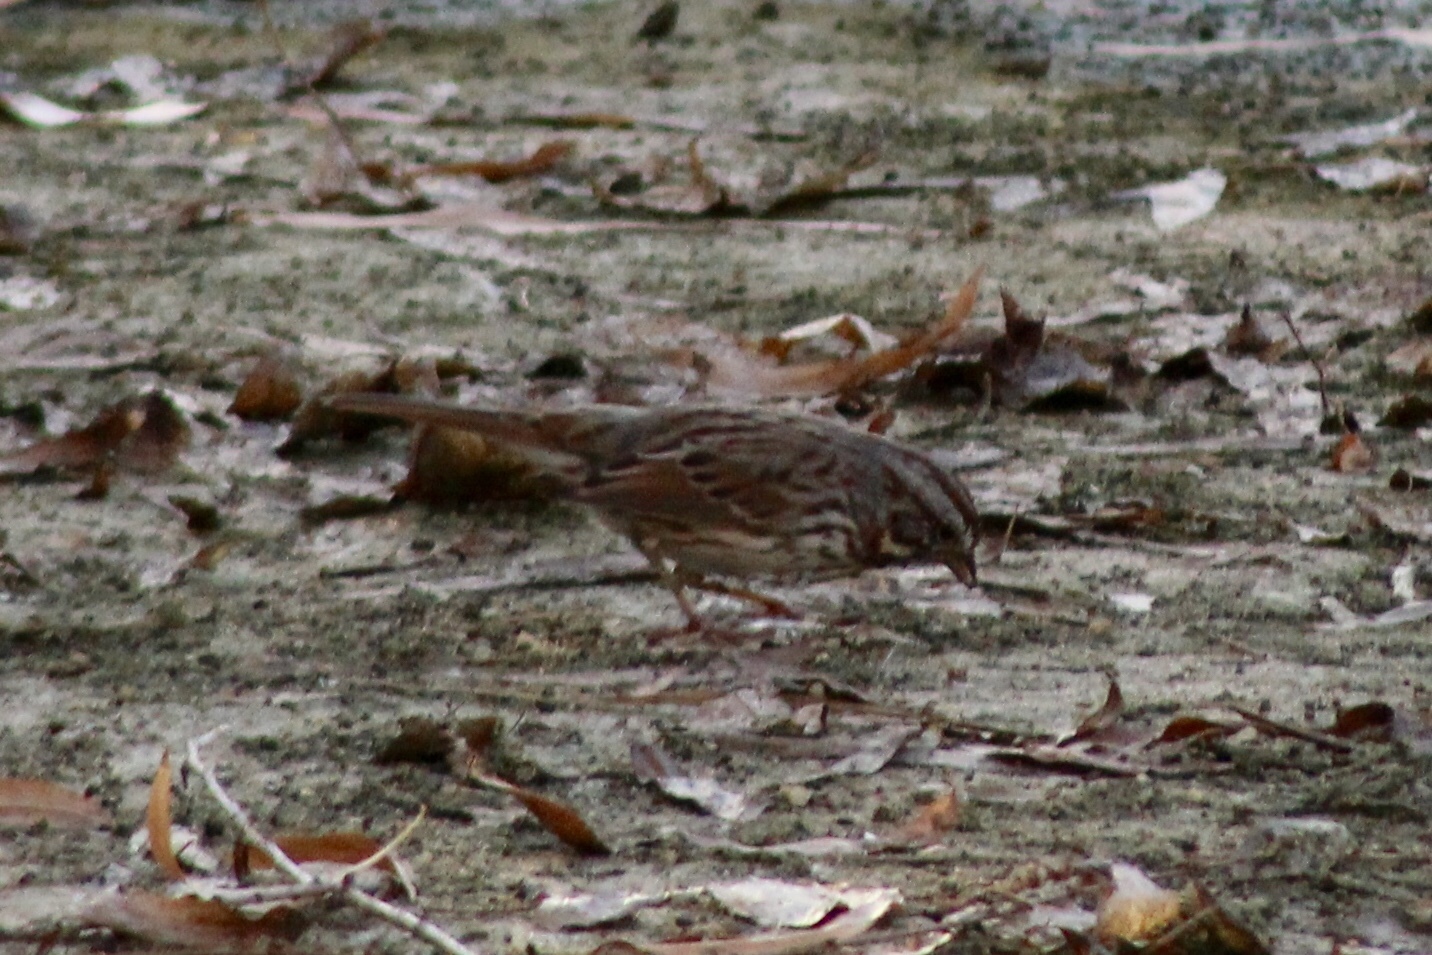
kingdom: Animalia
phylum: Chordata
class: Aves
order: Passeriformes
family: Passerellidae
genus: Melospiza
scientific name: Melospiza melodia
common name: Song sparrow
